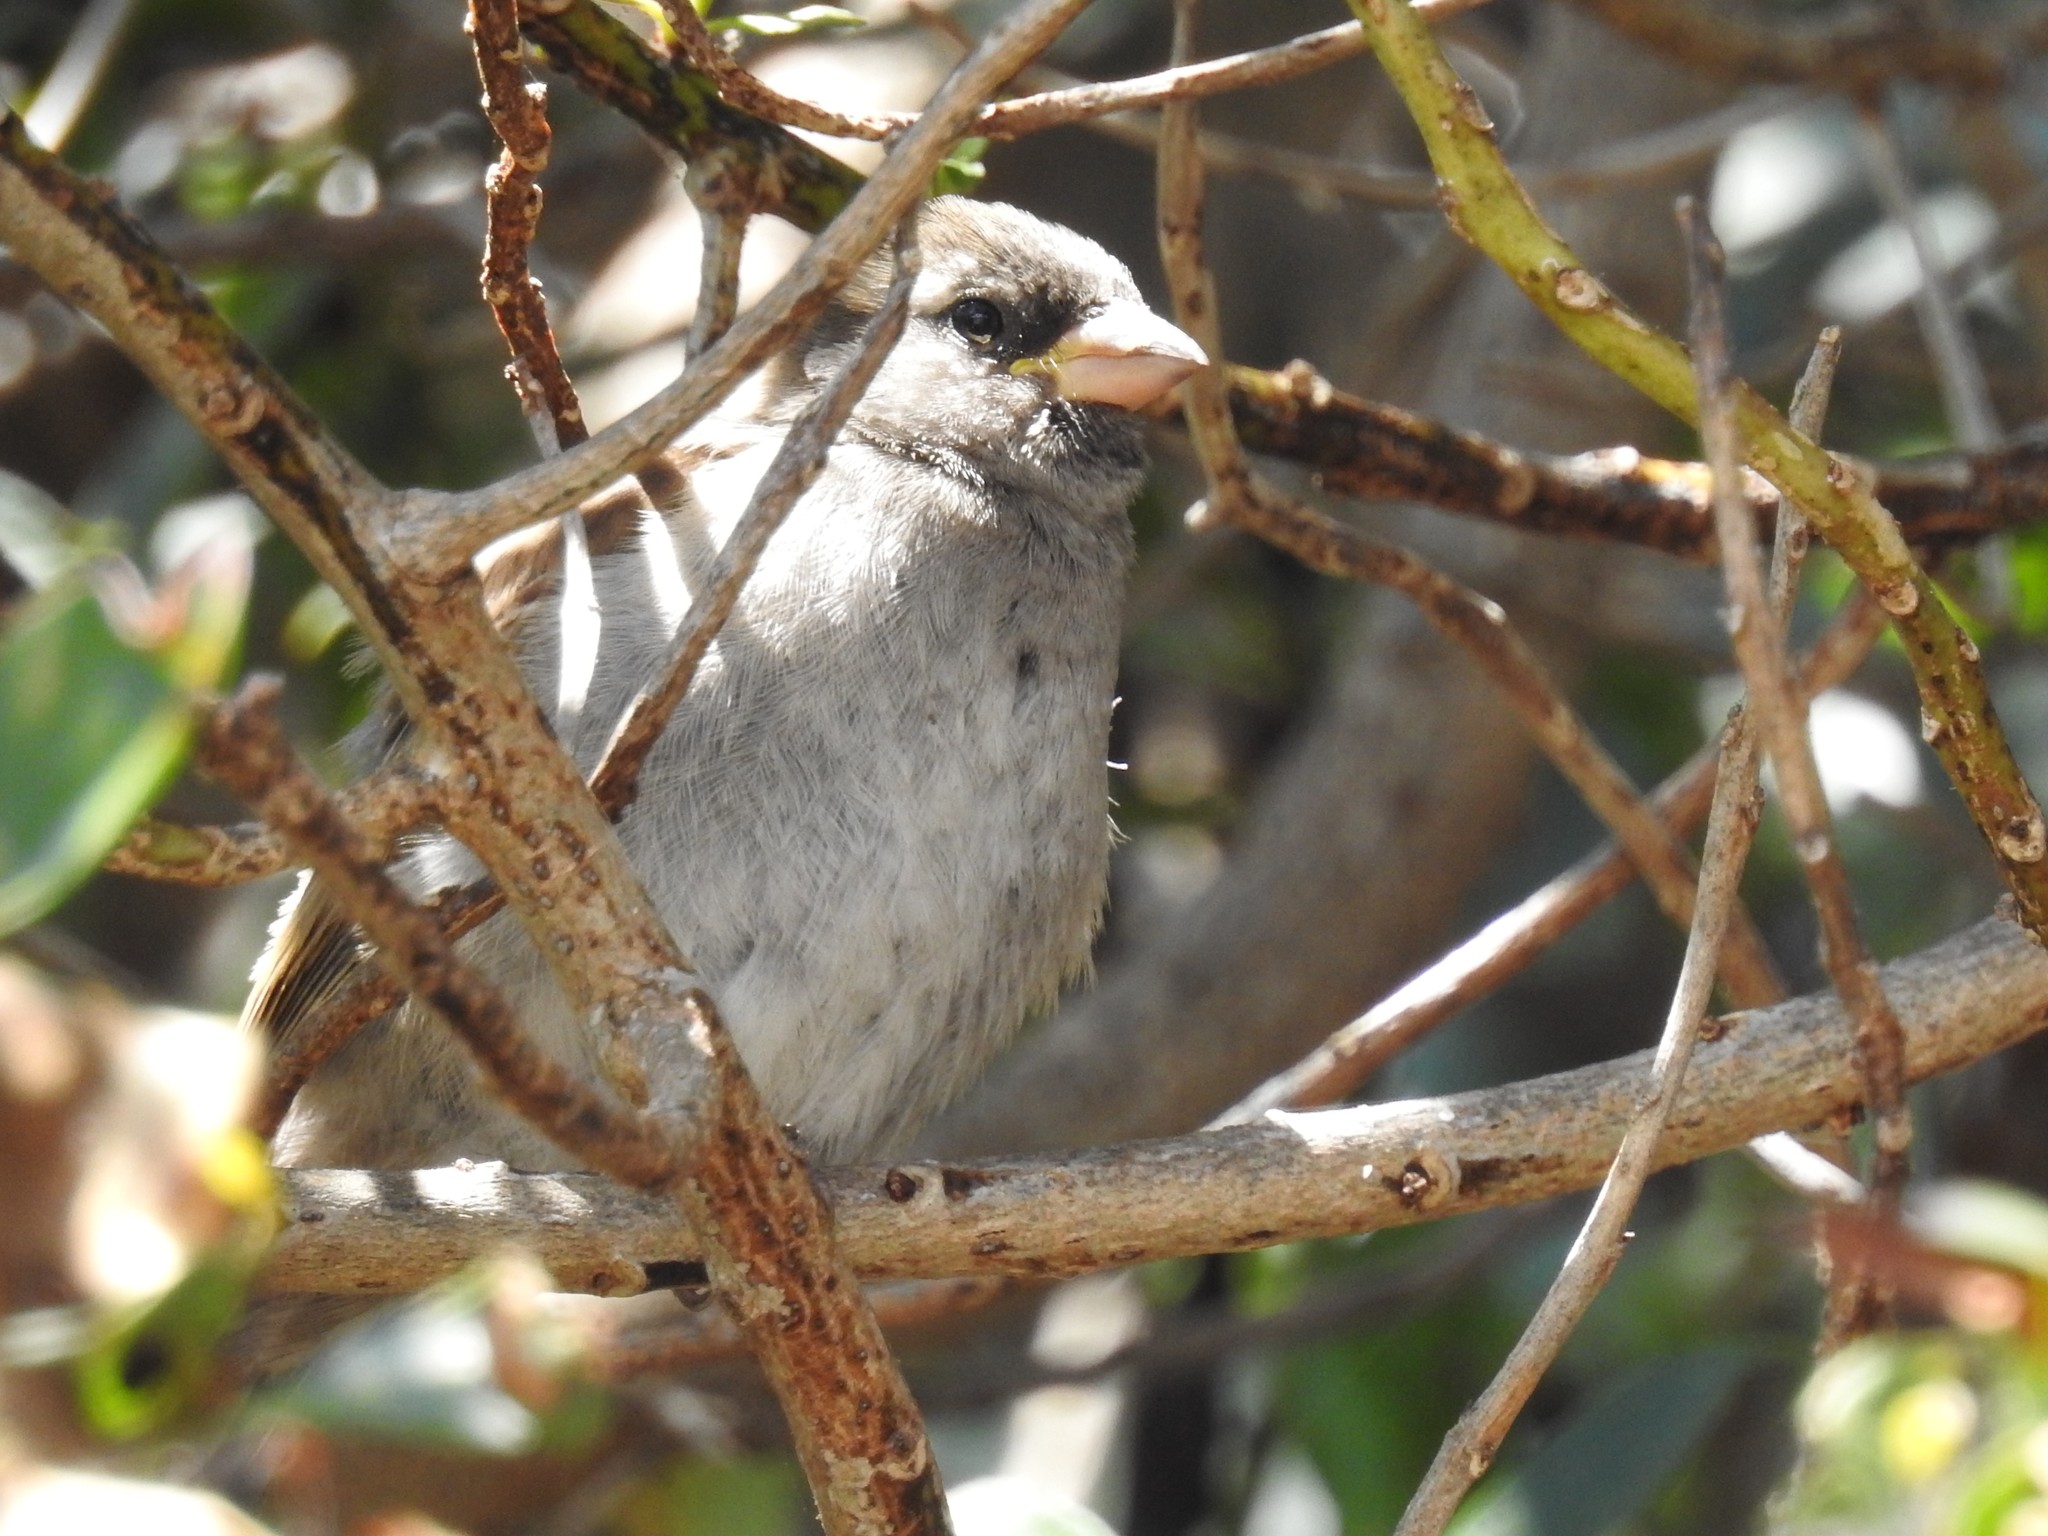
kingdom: Animalia
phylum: Chordata
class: Aves
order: Passeriformes
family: Passeridae
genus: Passer
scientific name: Passer domesticus
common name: House sparrow
